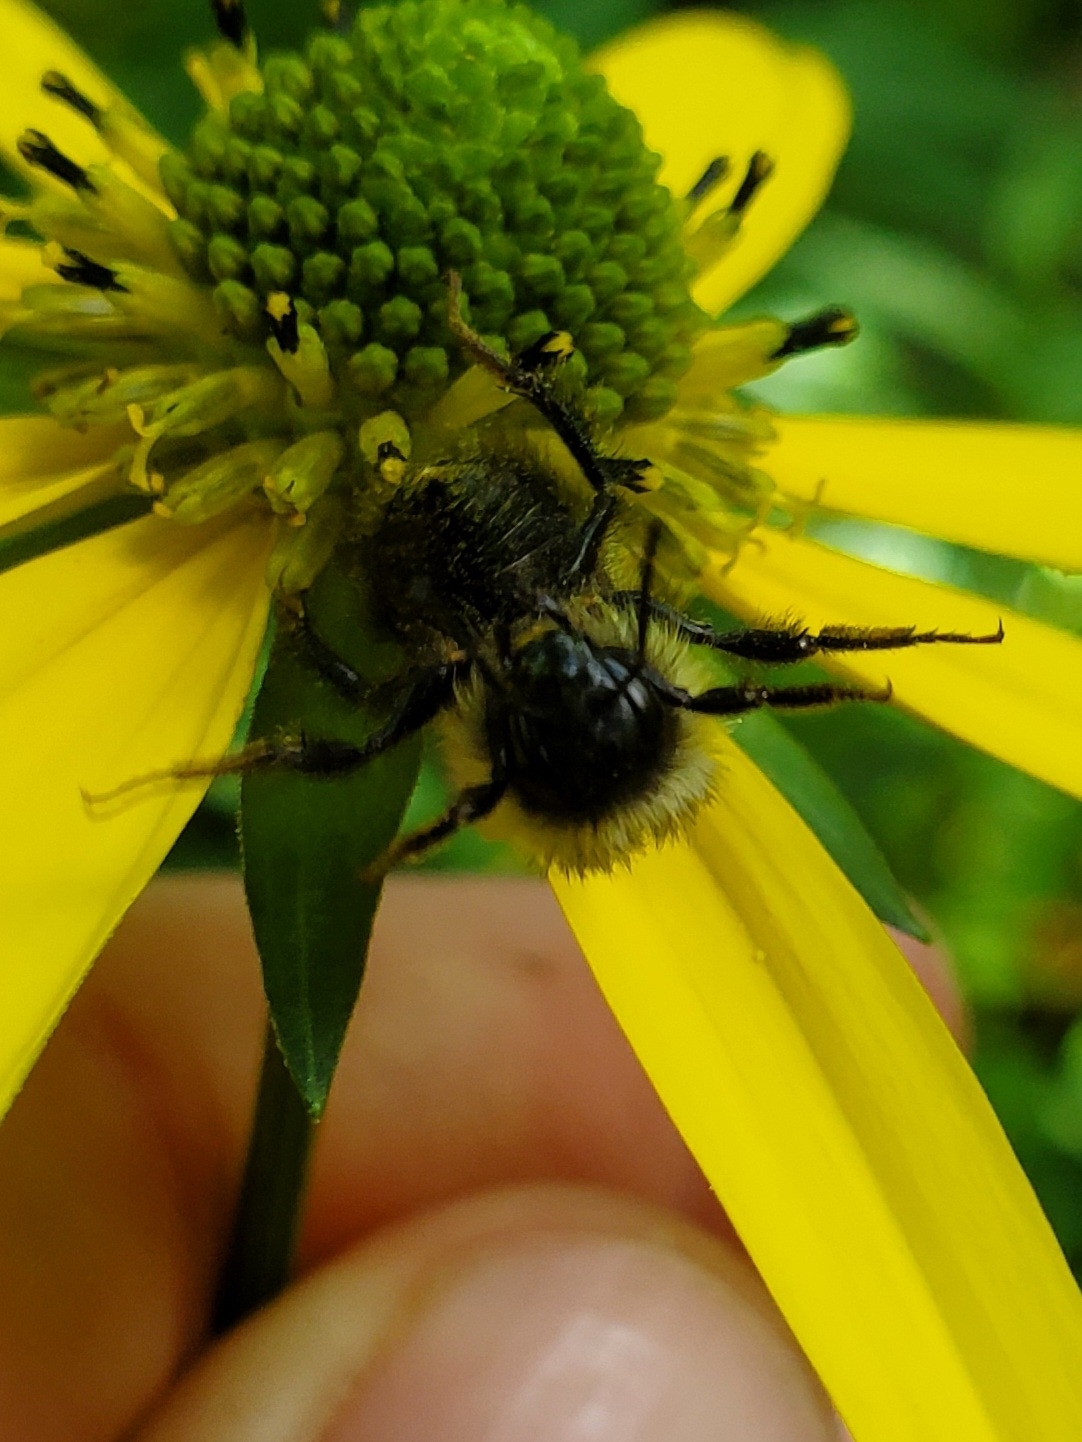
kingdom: Animalia
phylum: Arthropoda
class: Insecta
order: Hymenoptera
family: Apidae
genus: Bombus
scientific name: Bombus sandersoni
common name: Sanderson bumble bee
